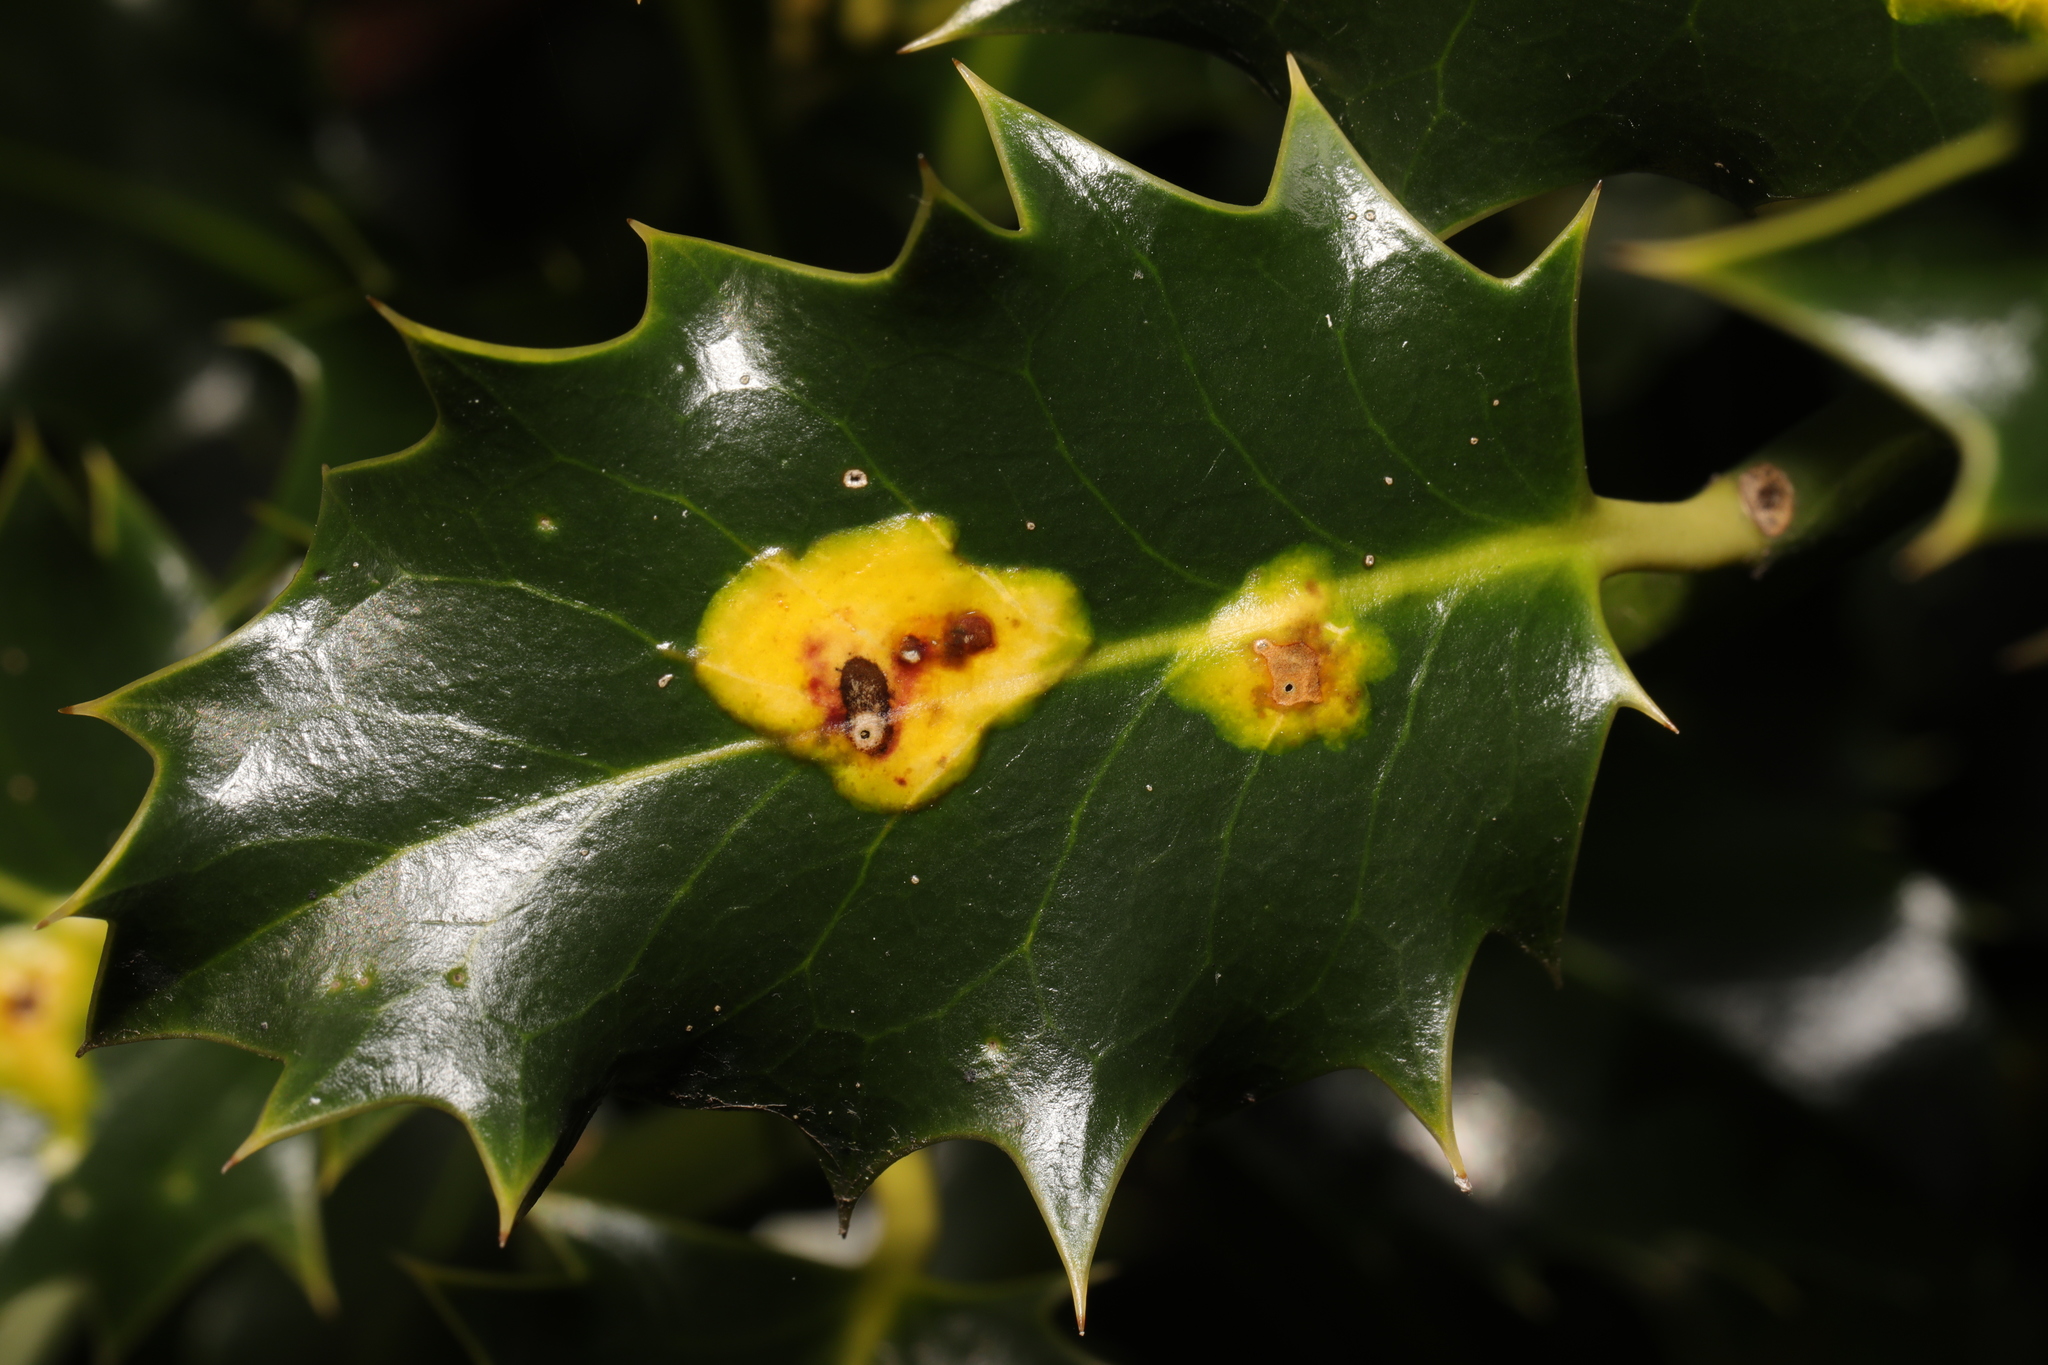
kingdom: Animalia
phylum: Arthropoda
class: Insecta
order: Diptera
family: Agromyzidae
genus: Phytomyza
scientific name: Phytomyza ilicis
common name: Holly leafminer
